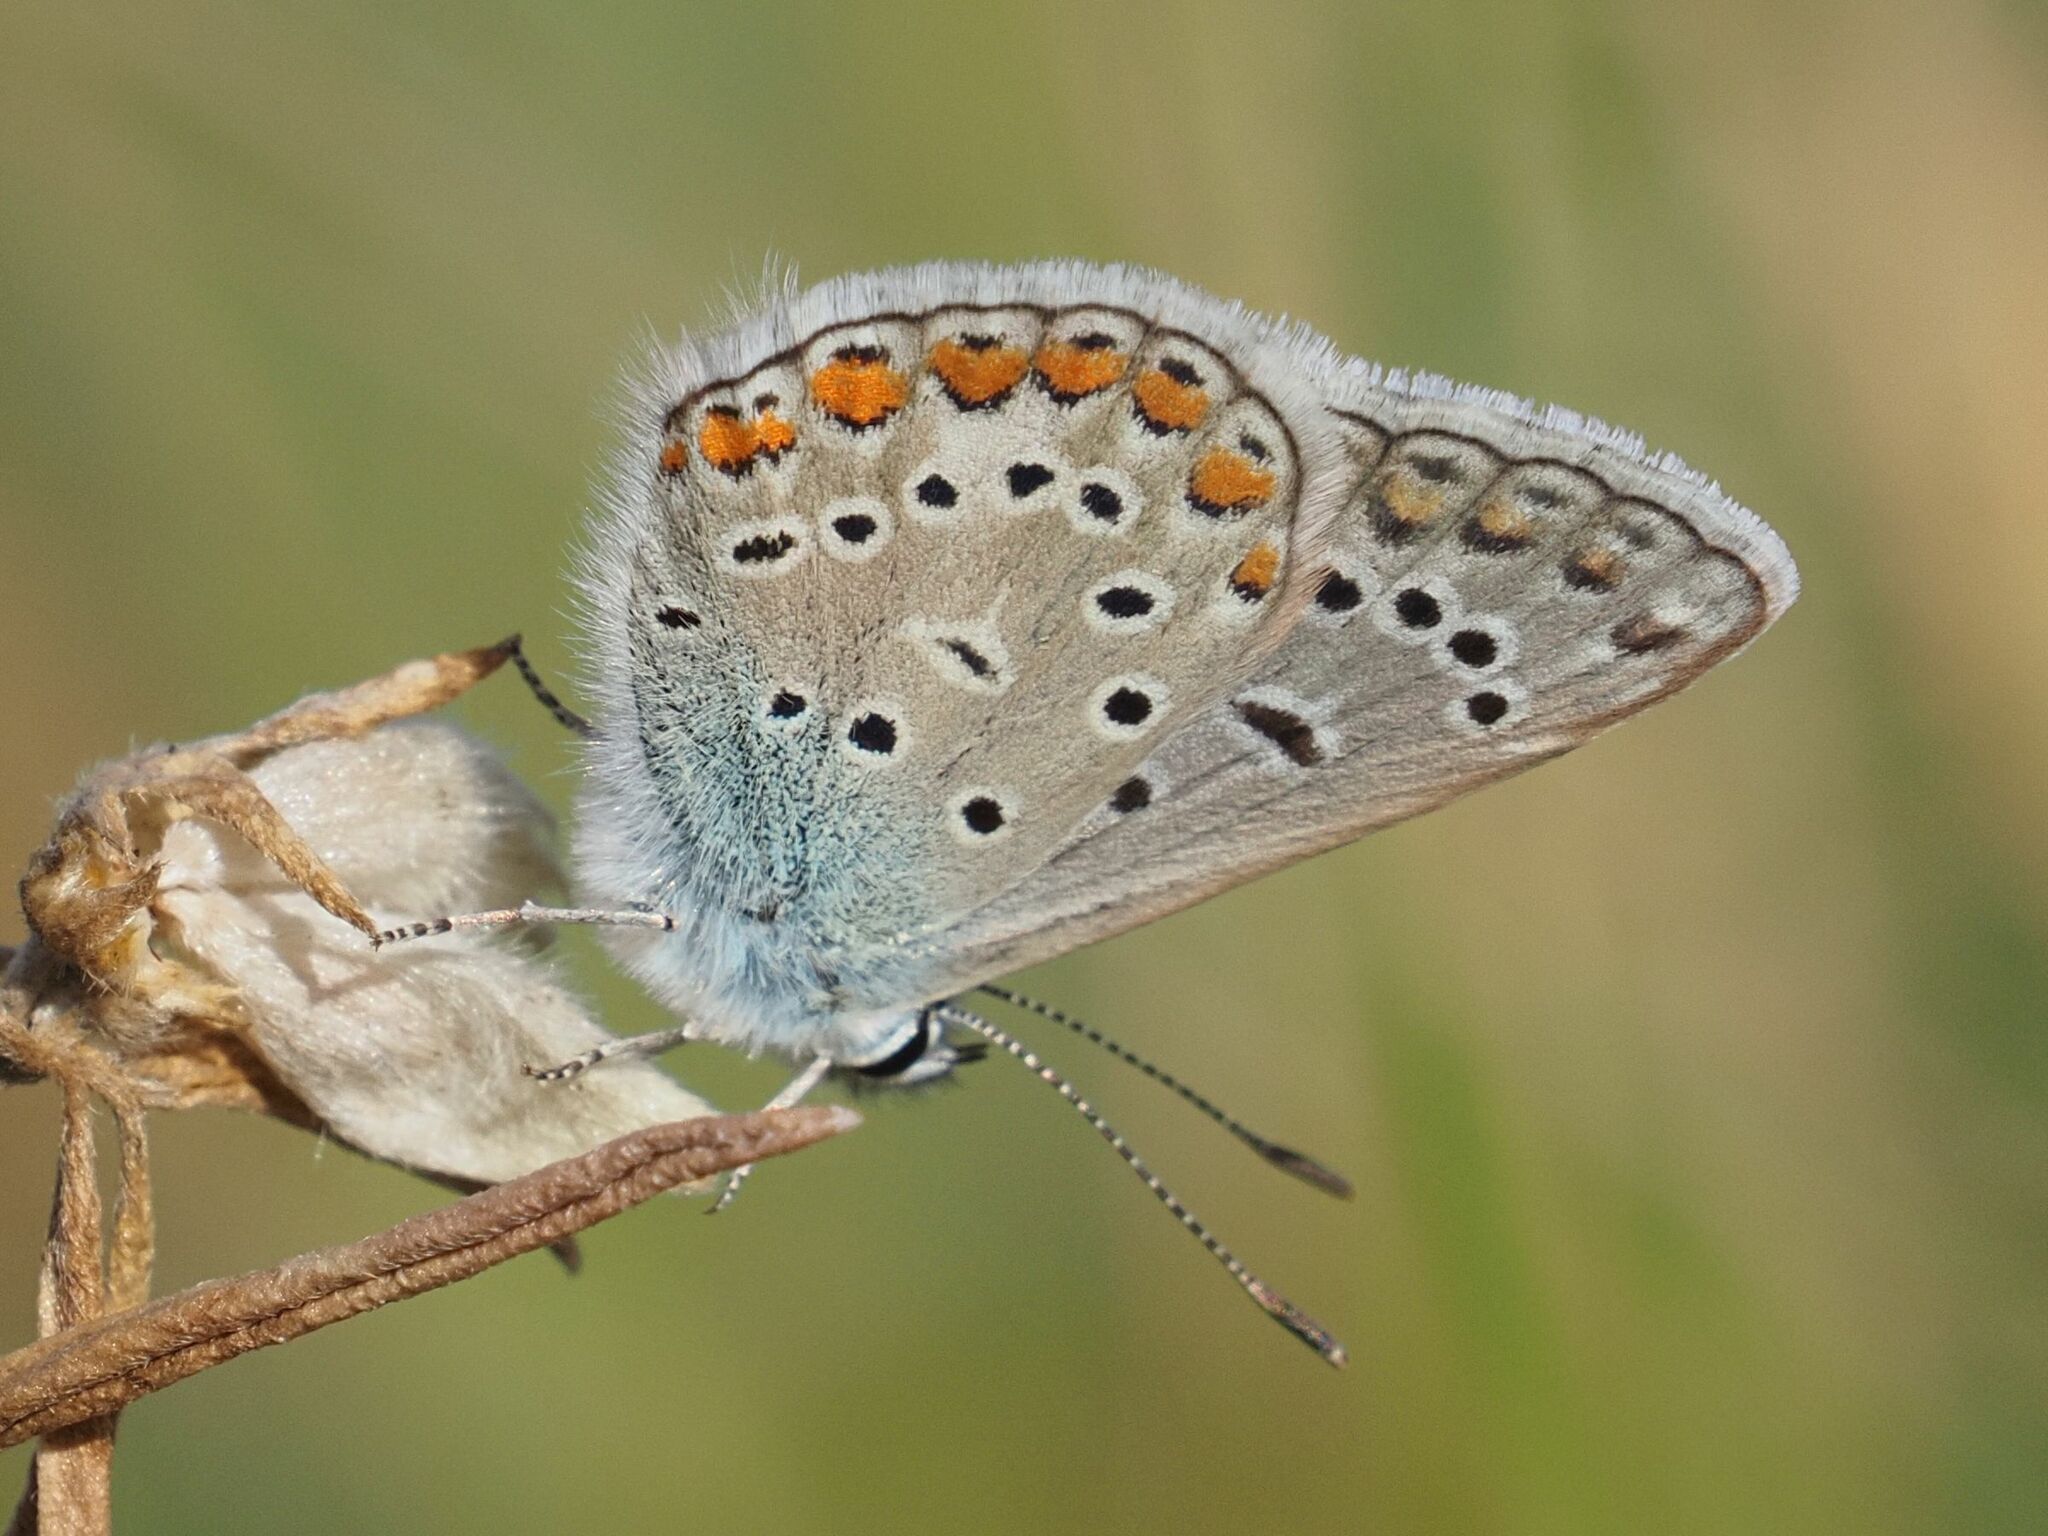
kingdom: Animalia
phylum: Arthropoda
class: Insecta
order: Lepidoptera
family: Lycaenidae
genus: Polyommatus
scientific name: Polyommatus icarus
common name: Common blue
